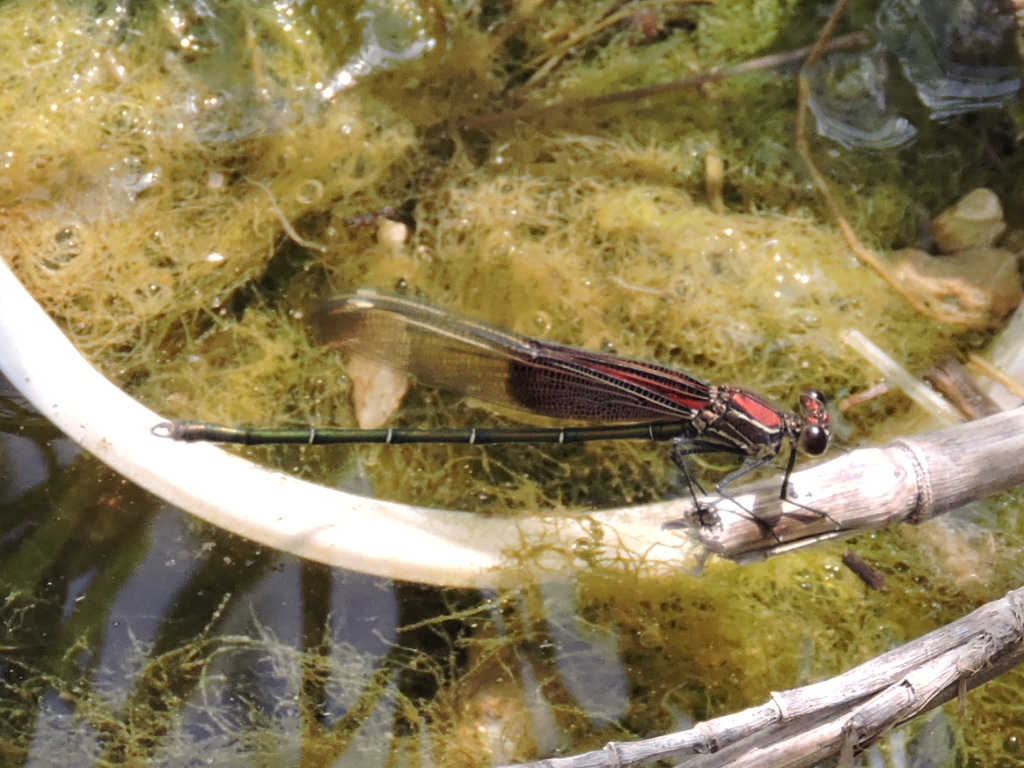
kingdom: Animalia
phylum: Arthropoda
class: Insecta
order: Odonata
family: Calopterygidae
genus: Hetaerina
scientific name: Hetaerina americana
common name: American rubyspot
